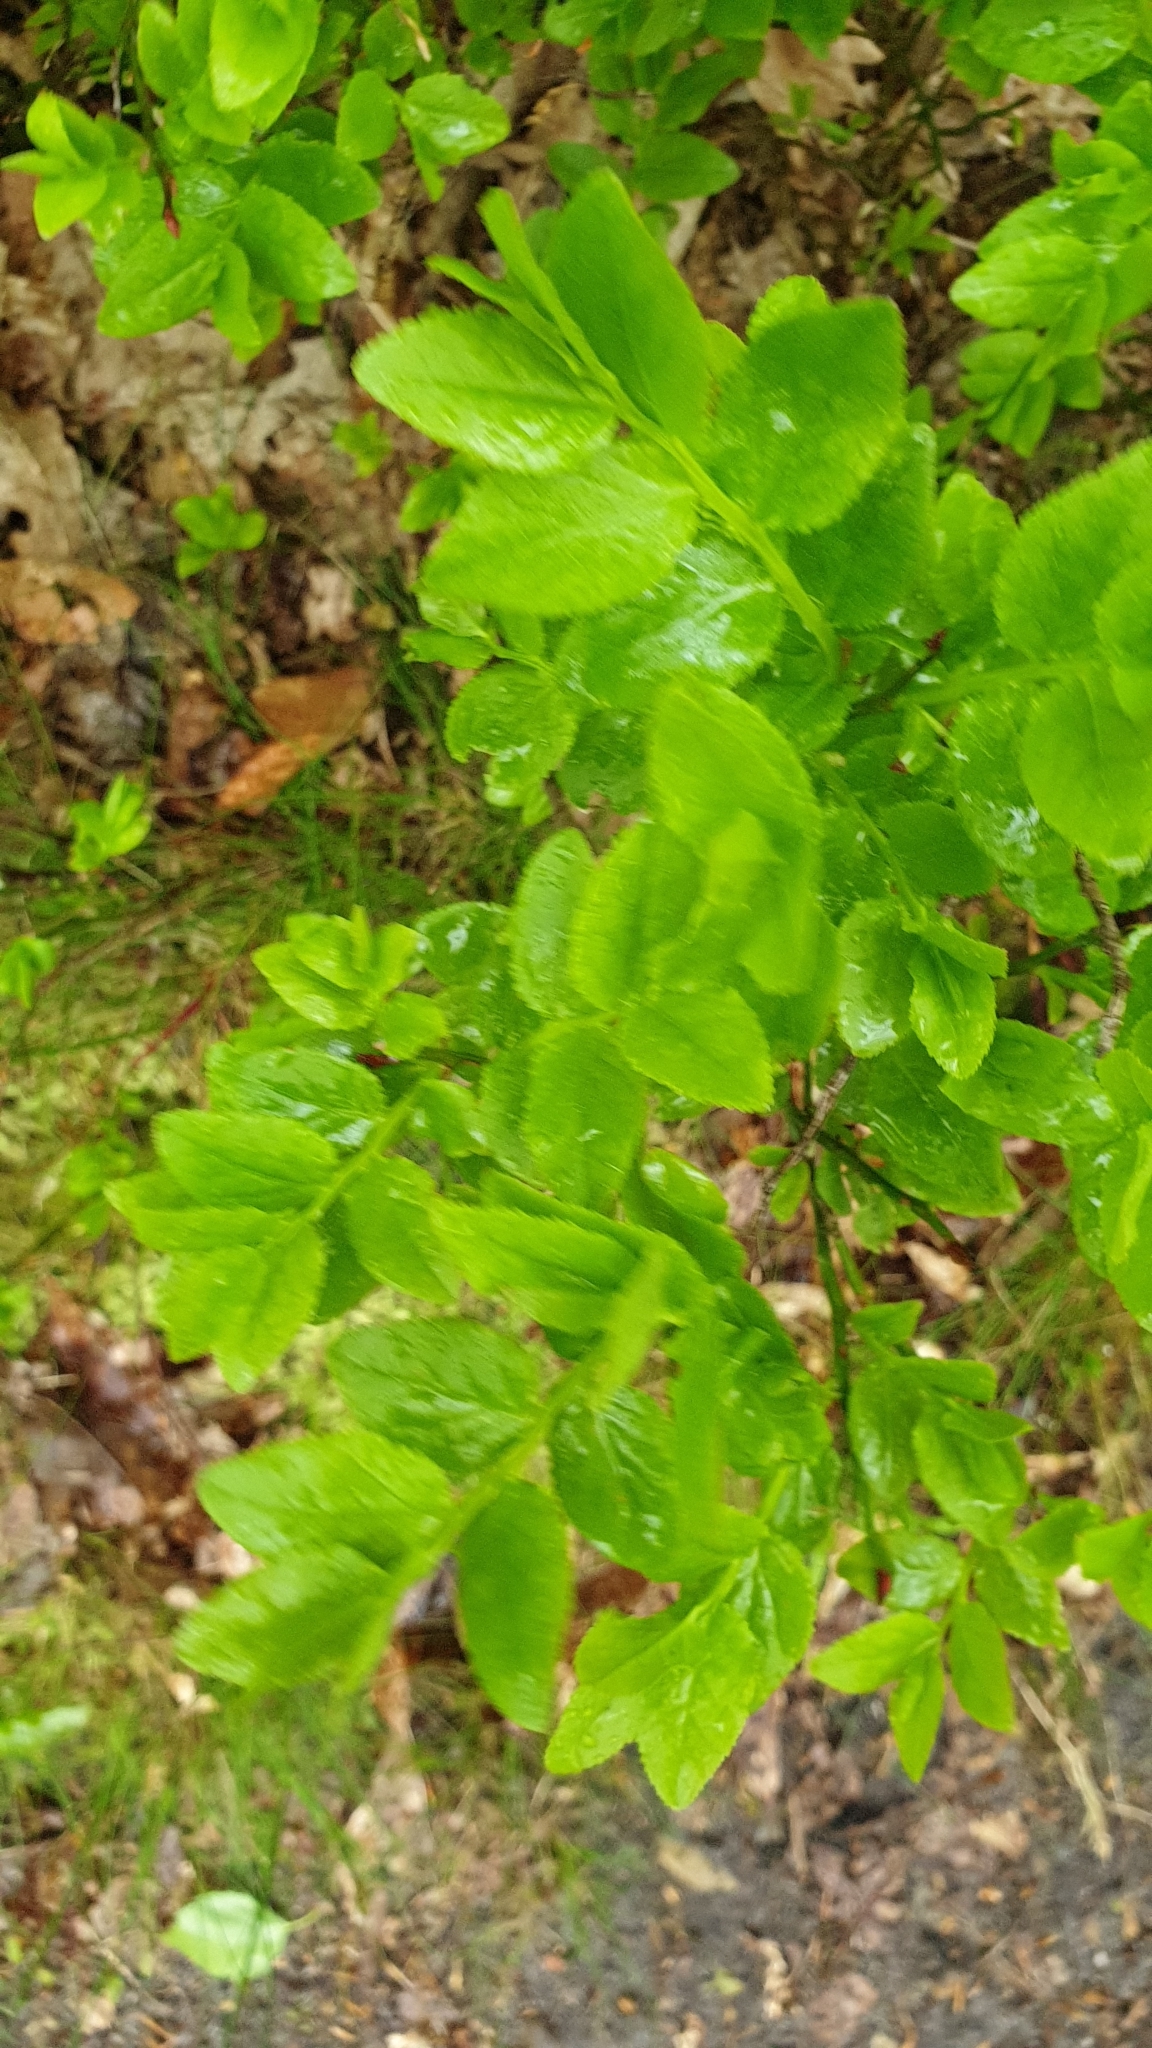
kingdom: Plantae
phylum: Tracheophyta
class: Magnoliopsida
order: Ericales
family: Ericaceae
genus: Vaccinium
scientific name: Vaccinium myrtillus
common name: Bilberry
